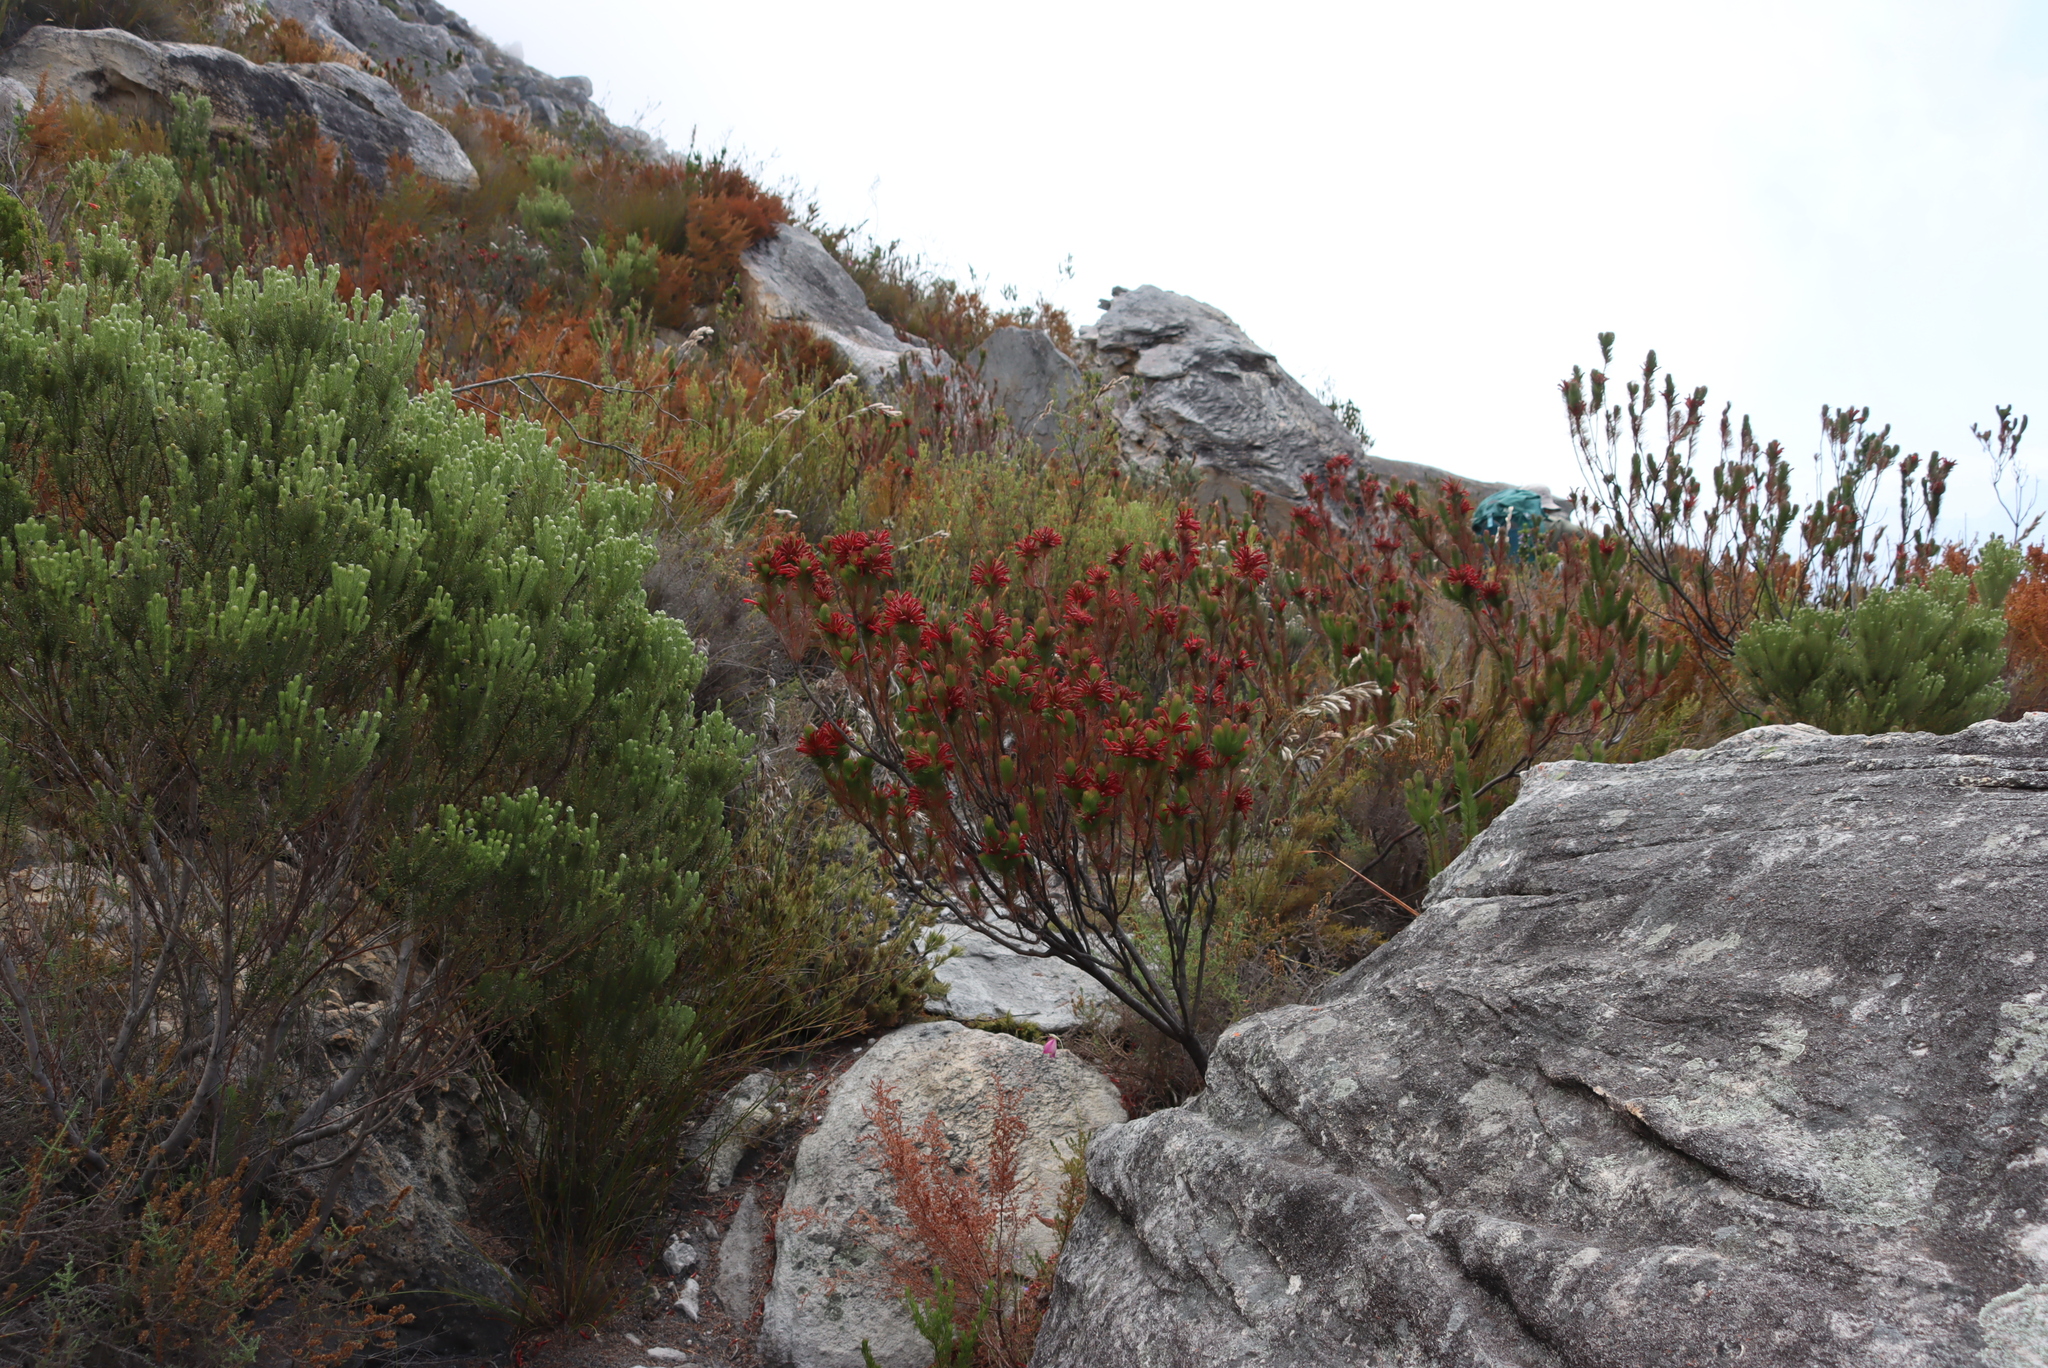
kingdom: Plantae
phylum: Tracheophyta
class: Magnoliopsida
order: Ericales
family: Ericaceae
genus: Erica
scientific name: Erica vestita
